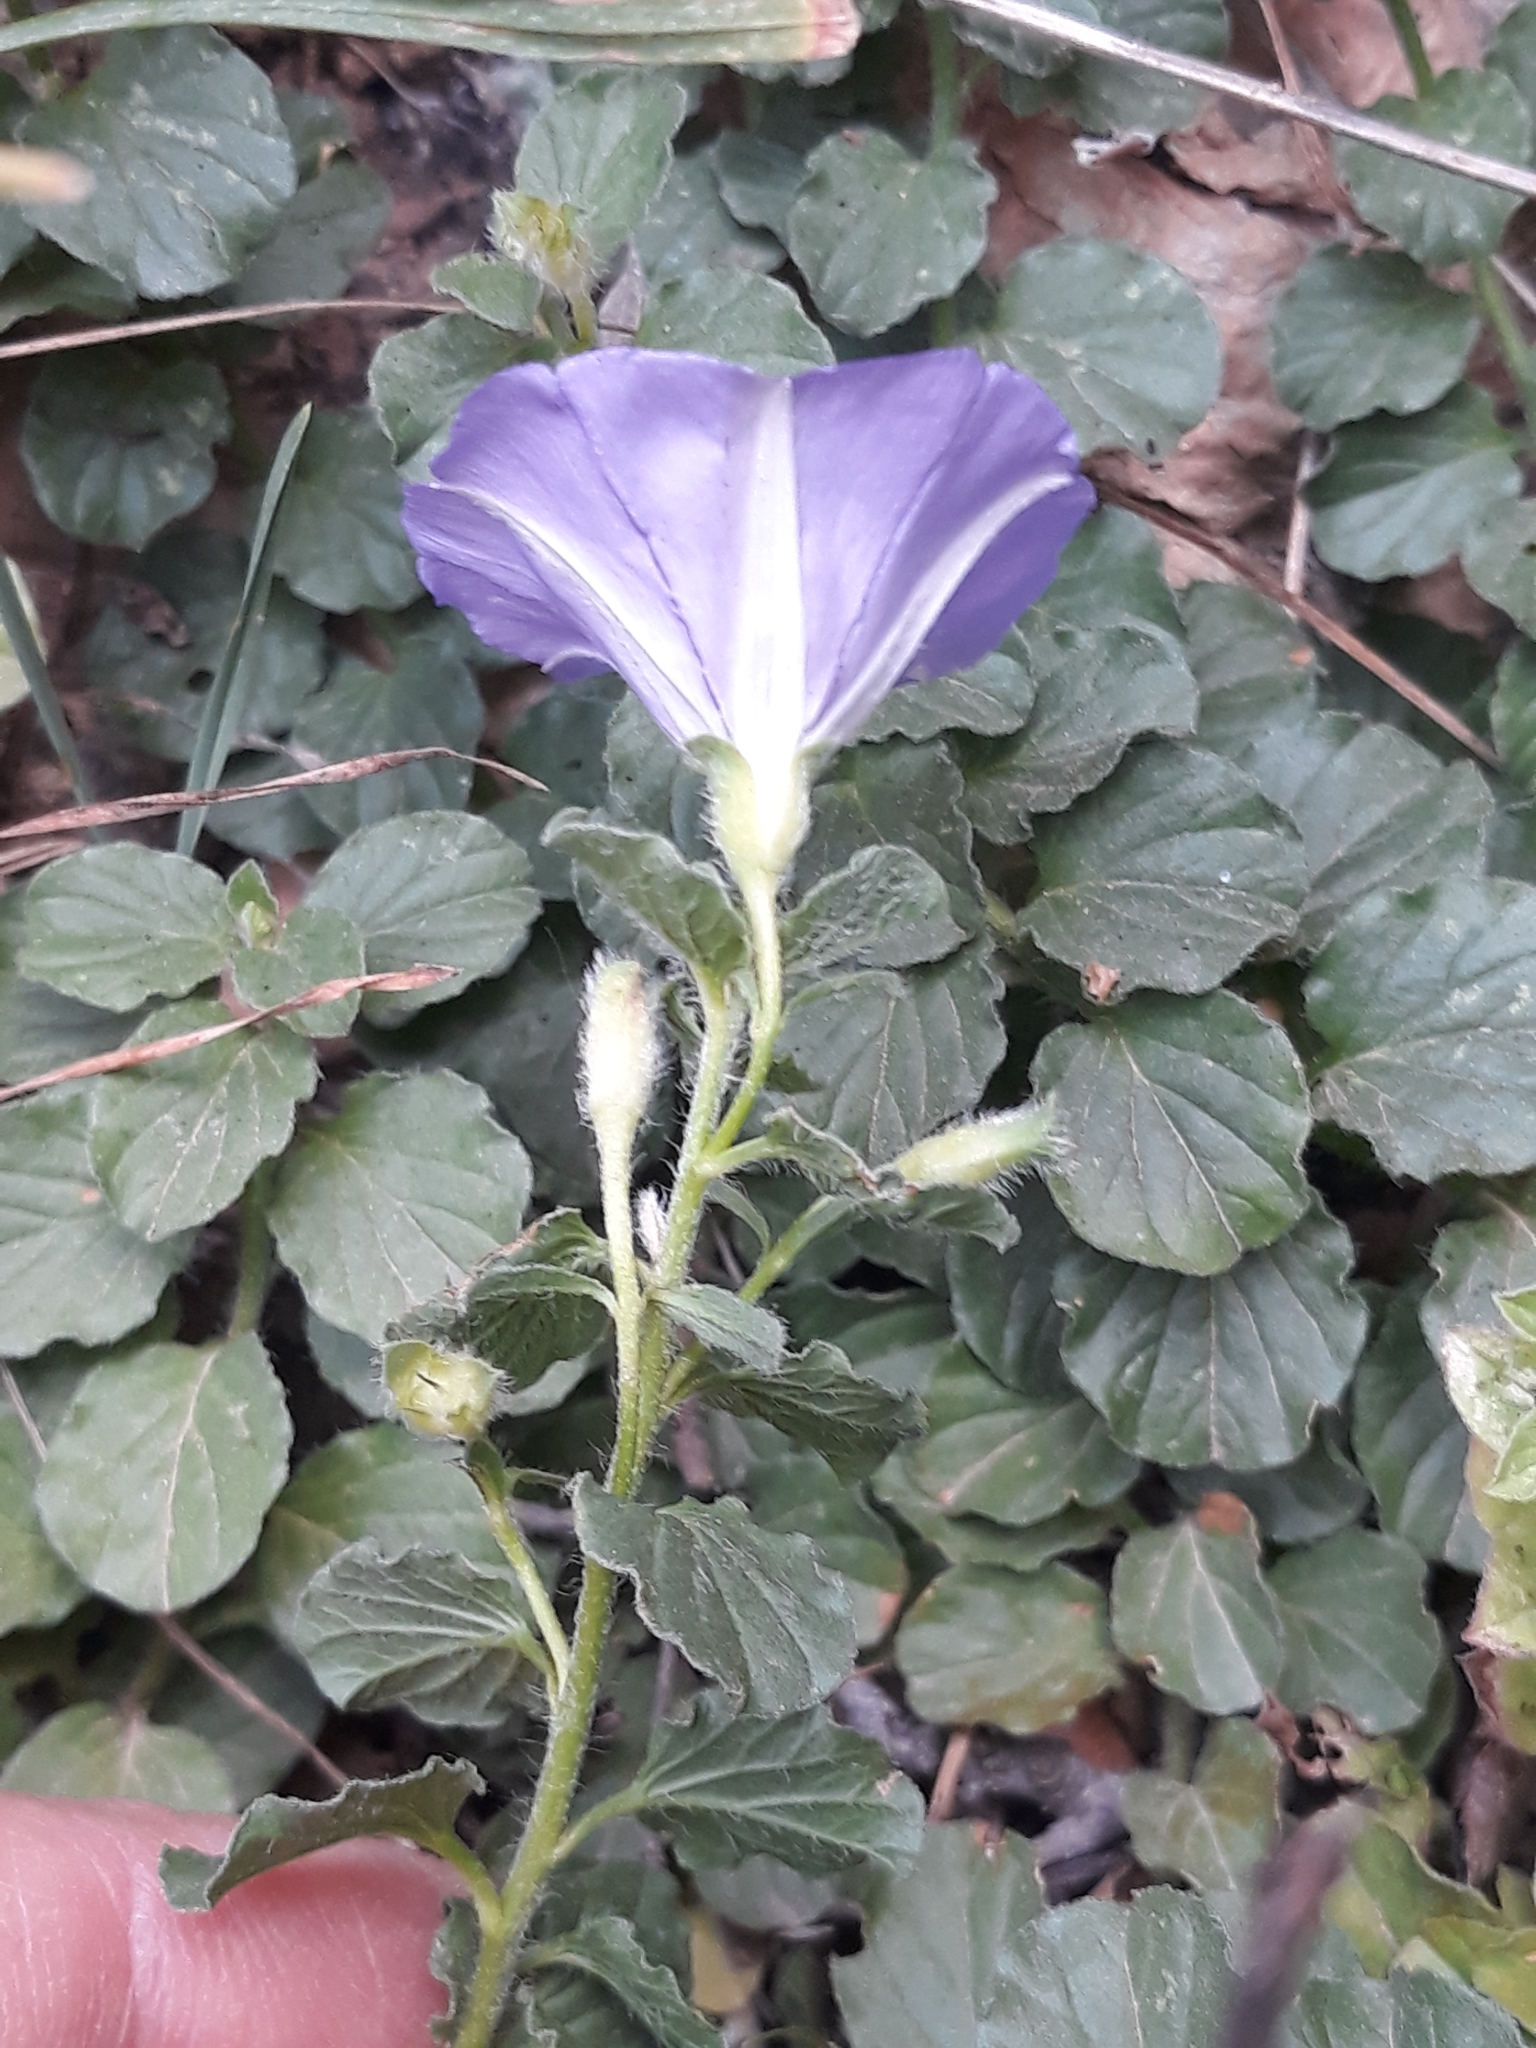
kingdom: Plantae
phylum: Tracheophyta
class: Magnoliopsida
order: Solanales
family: Convolvulaceae
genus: Convolvulus
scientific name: Convolvulus sabatius
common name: Ground blue-convolvulus
